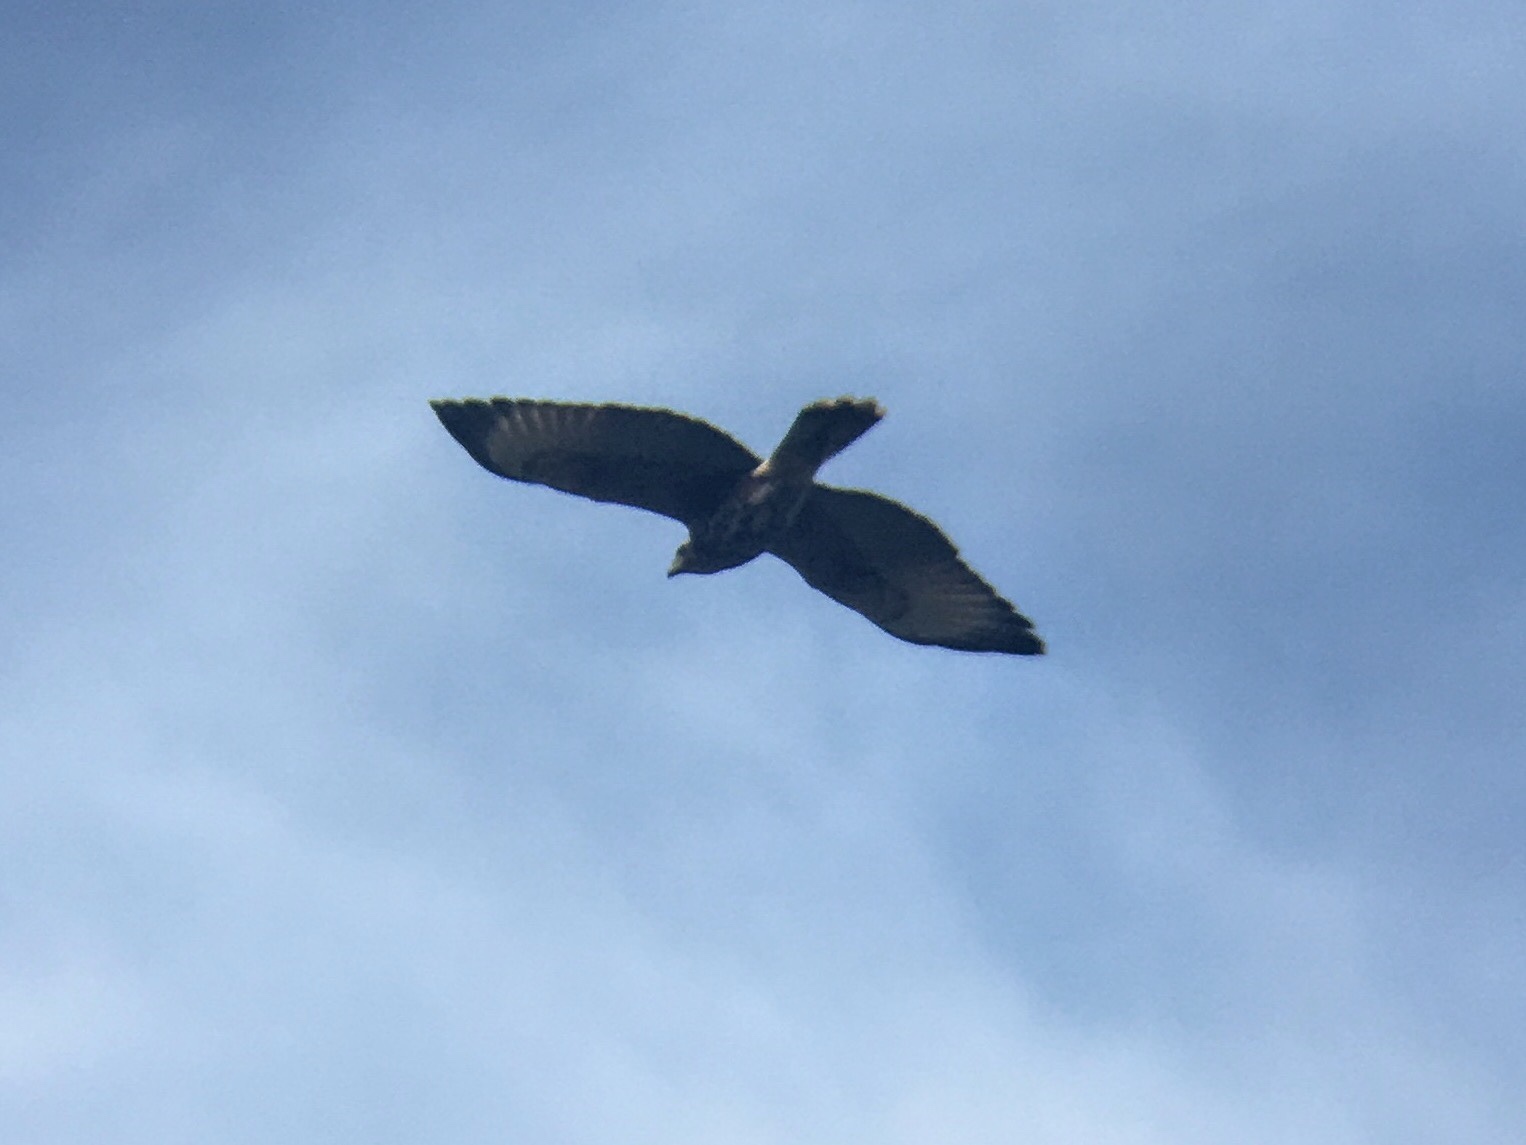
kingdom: Animalia
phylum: Chordata
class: Aves
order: Accipitriformes
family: Accipitridae
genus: Parabuteo
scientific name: Parabuteo unicinctus
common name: Harris's hawk
